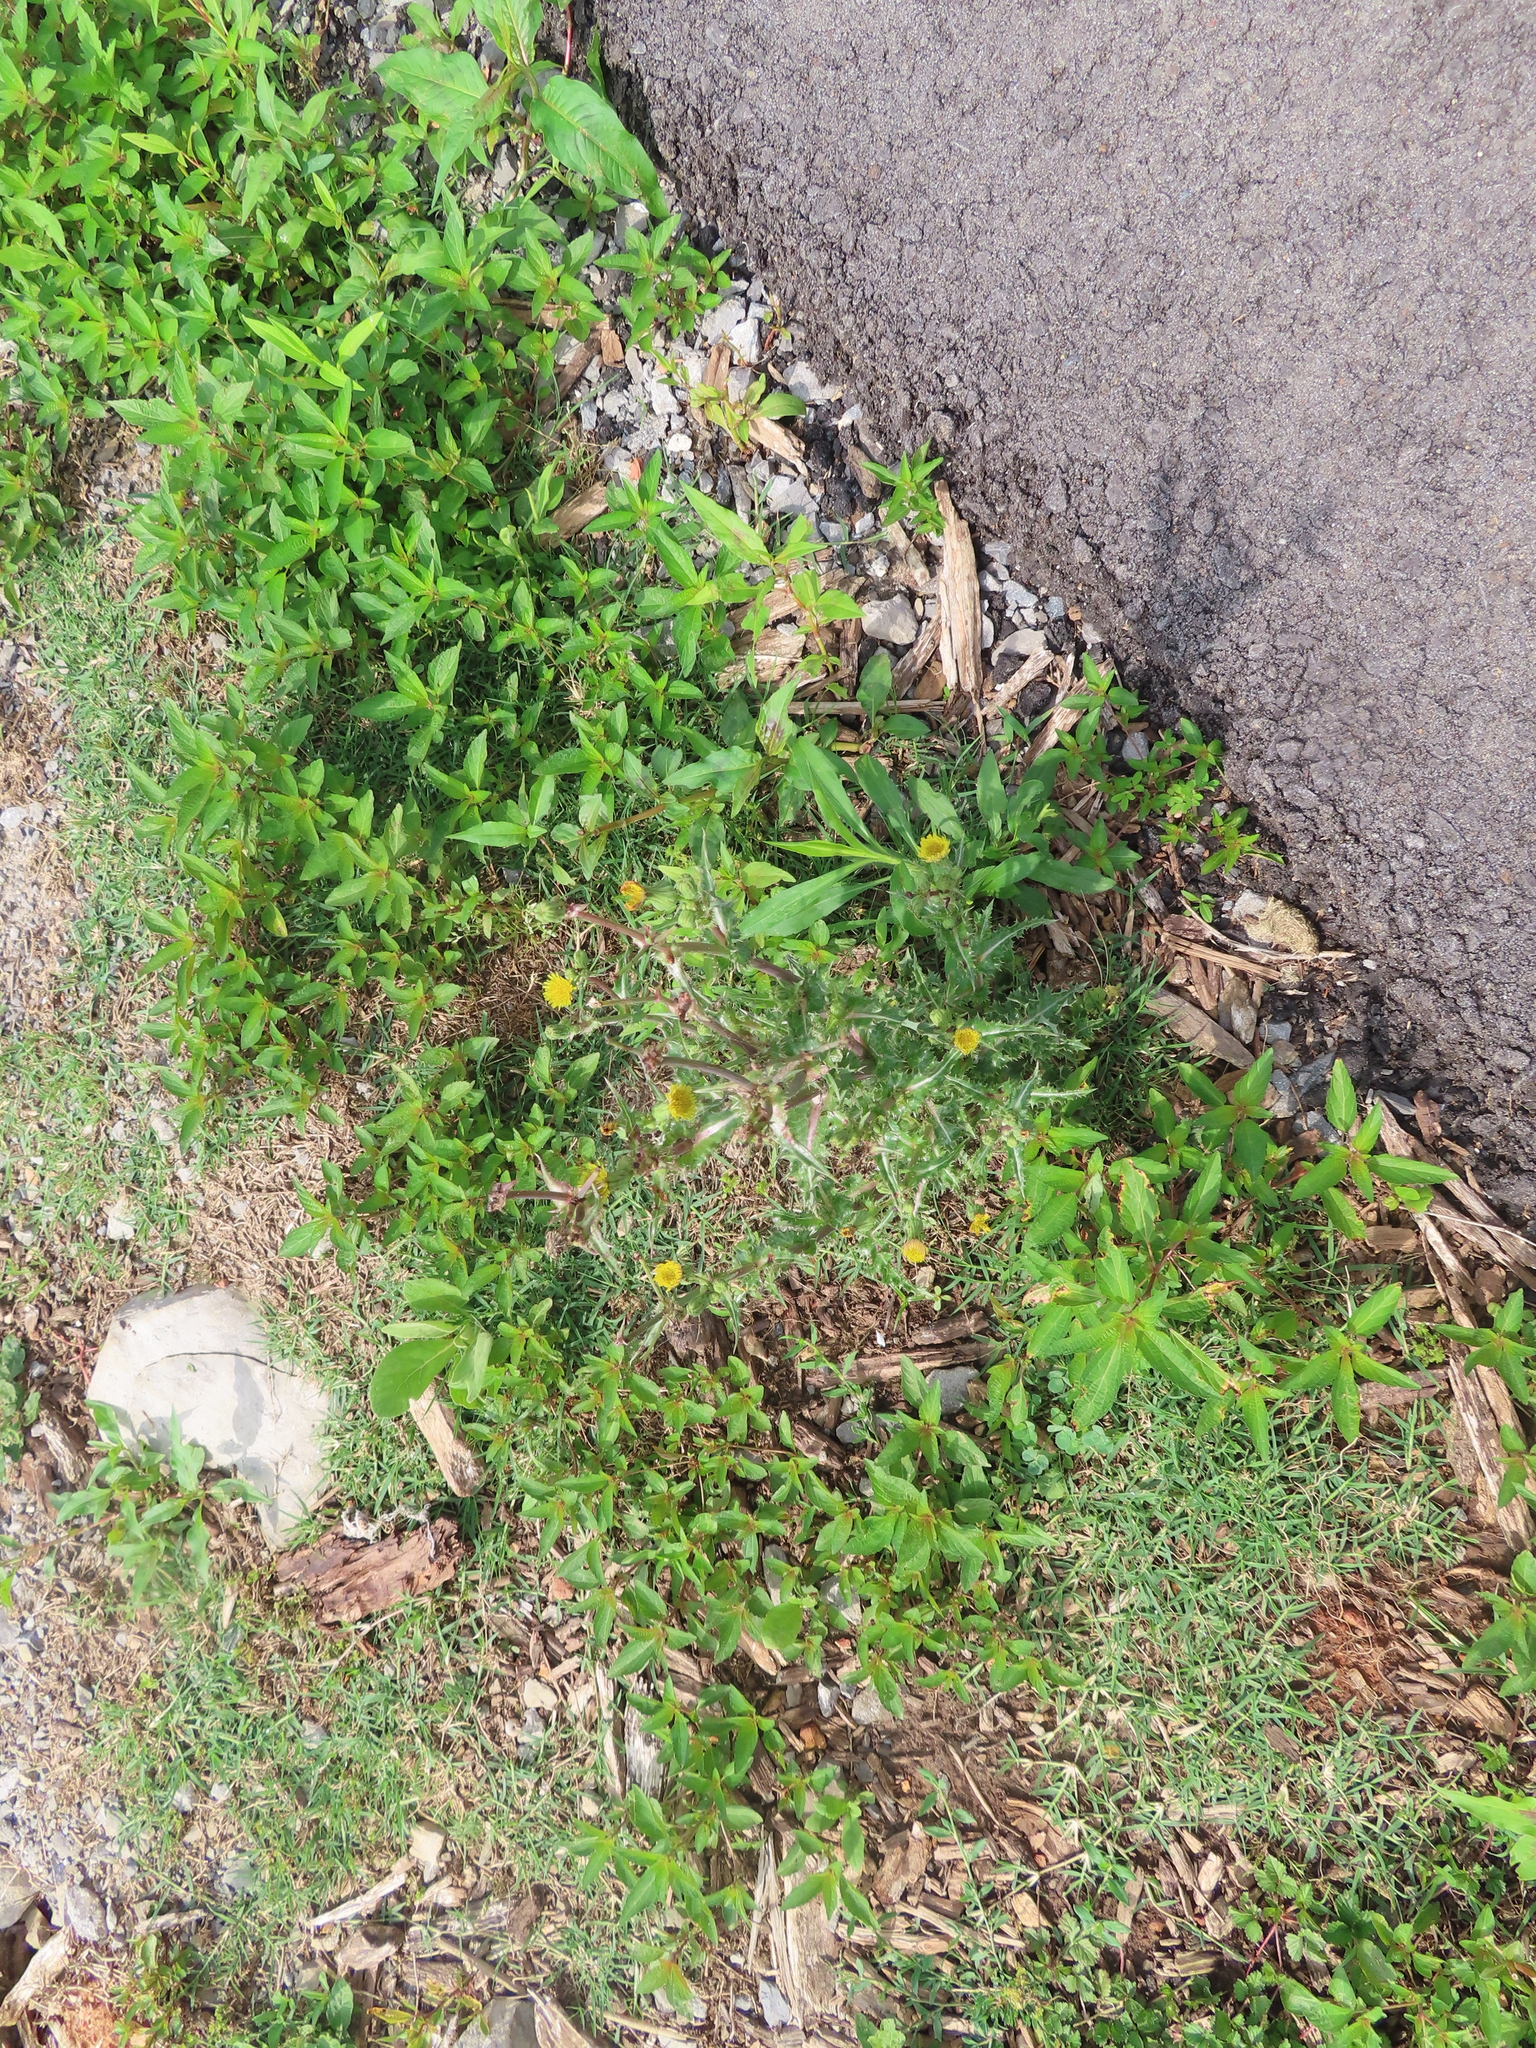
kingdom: Plantae
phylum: Tracheophyta
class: Magnoliopsida
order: Asterales
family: Asteraceae
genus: Sonchus
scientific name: Sonchus asper
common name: Prickly sow-thistle
